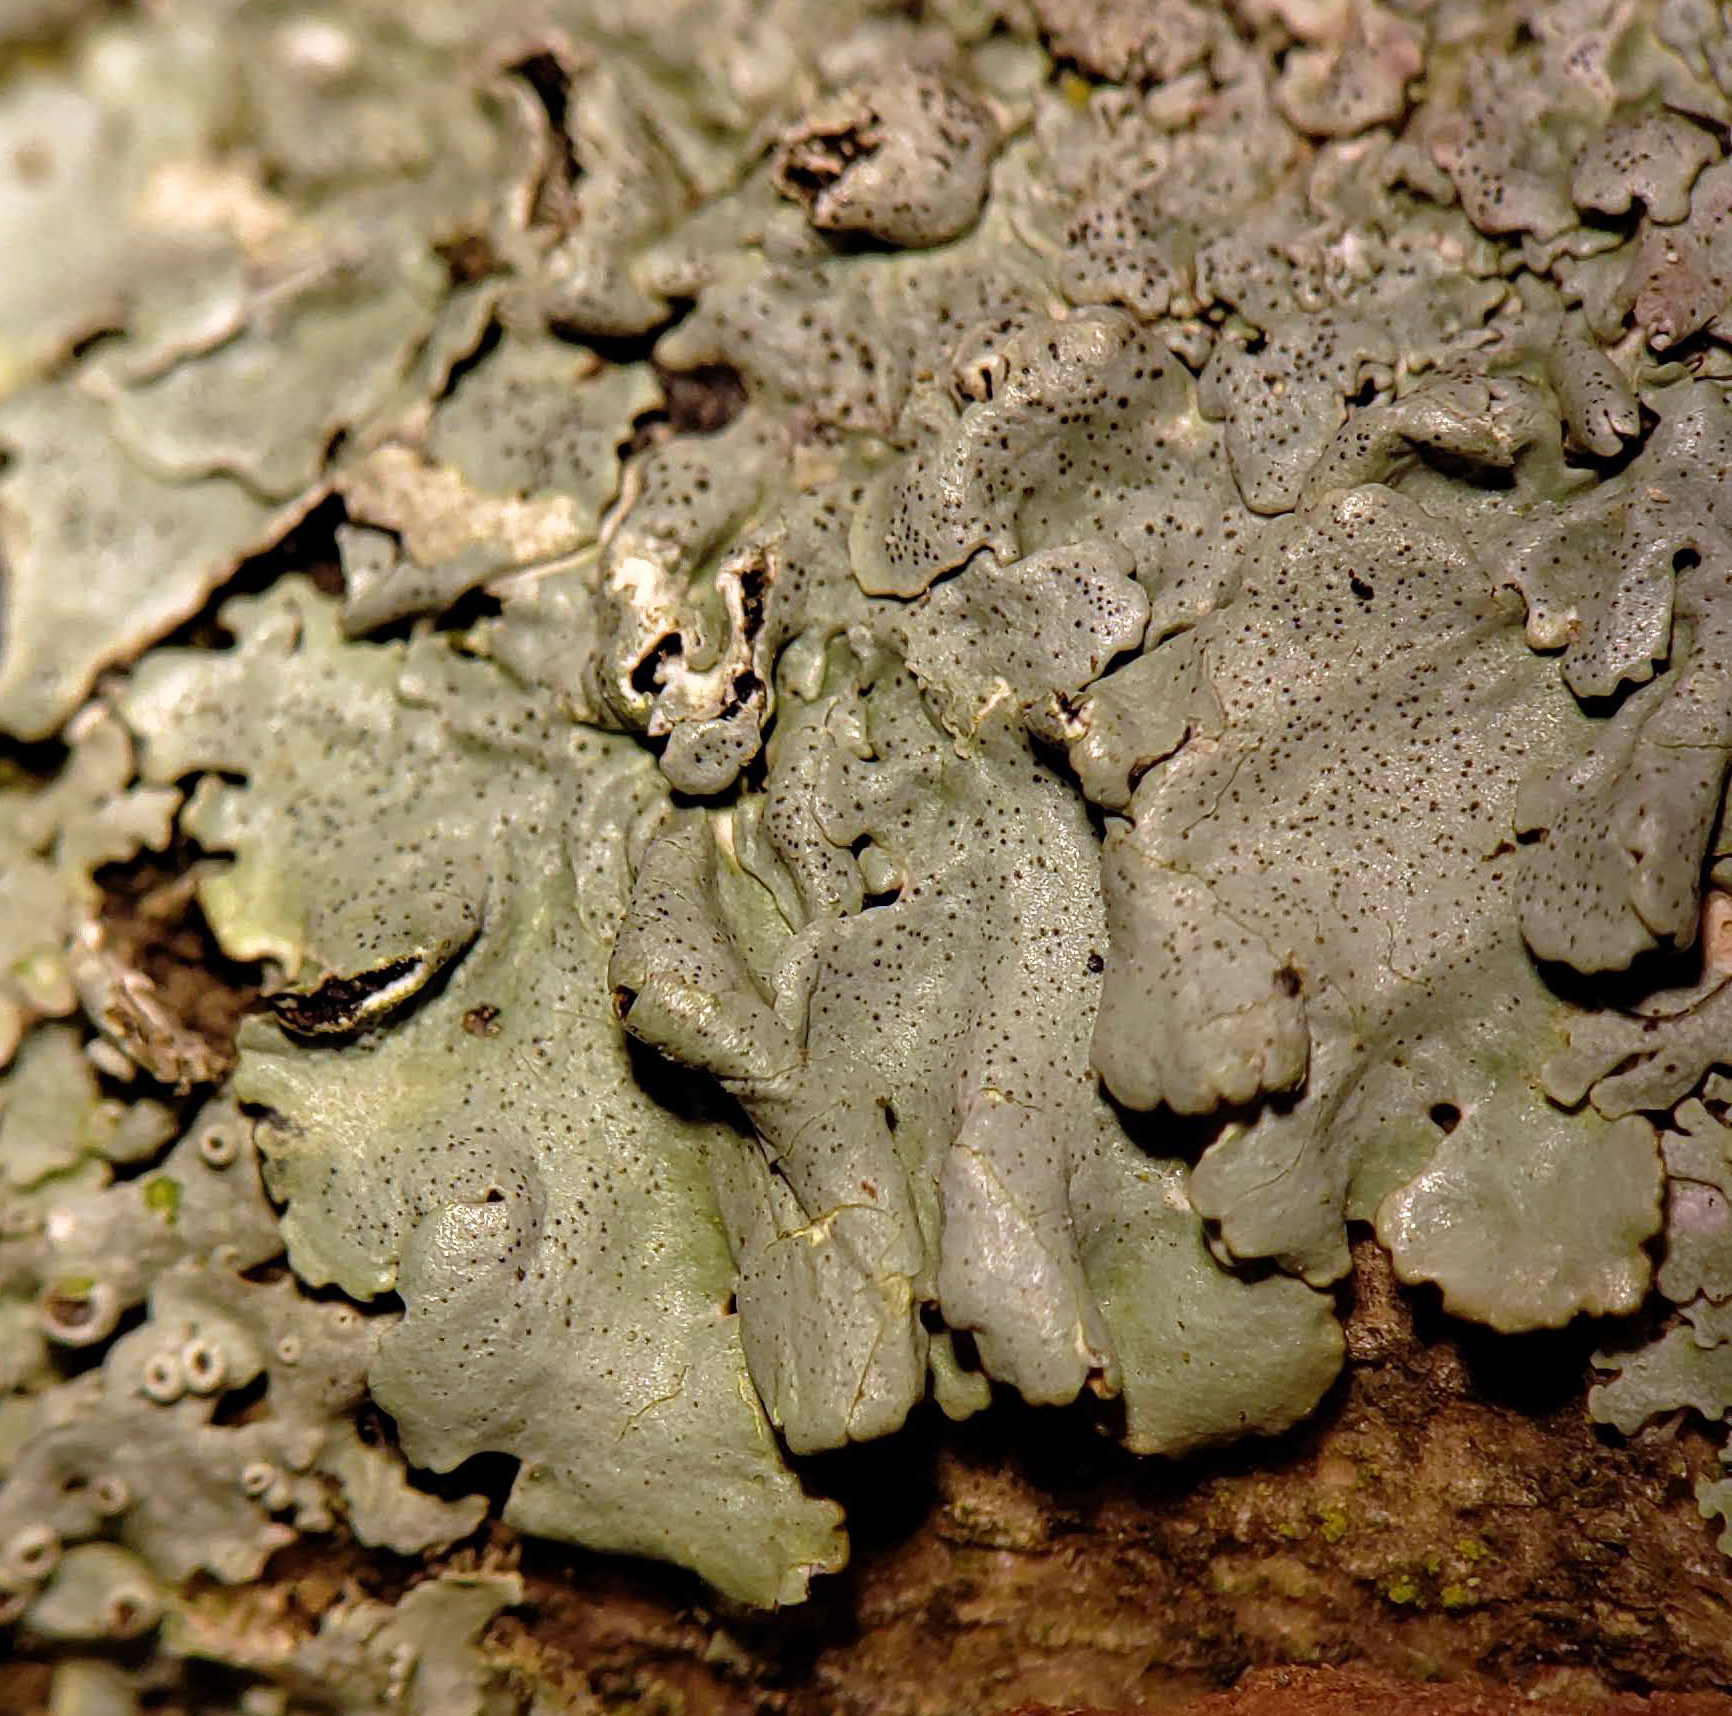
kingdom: Fungi
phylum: Ascomycota
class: Lecanoromycetes
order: Lecanorales
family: Parmeliaceae
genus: Myelochroa
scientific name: Myelochroa galbina
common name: Smooth axil-bristle lichen
